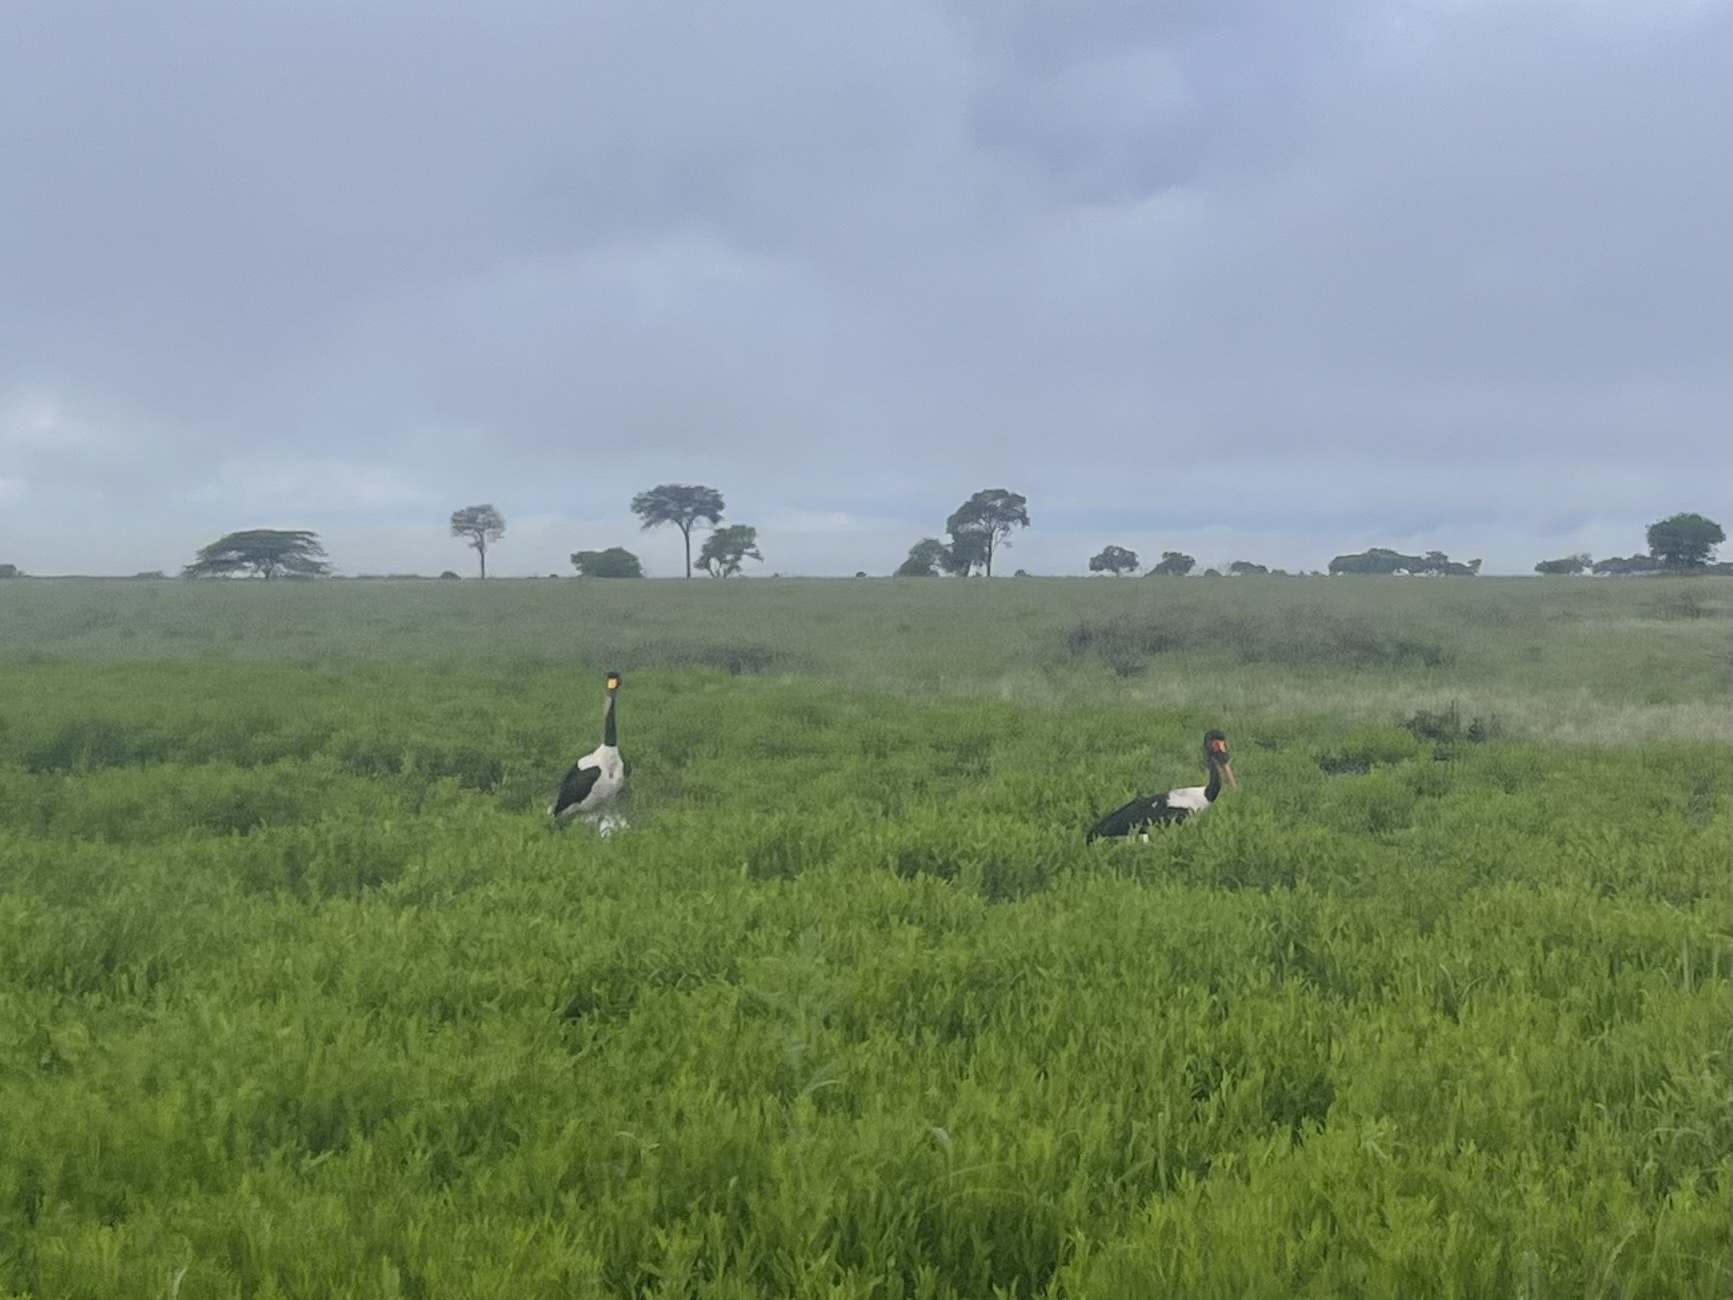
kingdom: Animalia
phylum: Chordata
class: Aves
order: Ciconiiformes
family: Ciconiidae
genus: Ephippiorhynchus
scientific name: Ephippiorhynchus senegalensis
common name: Saddle-billed stork
